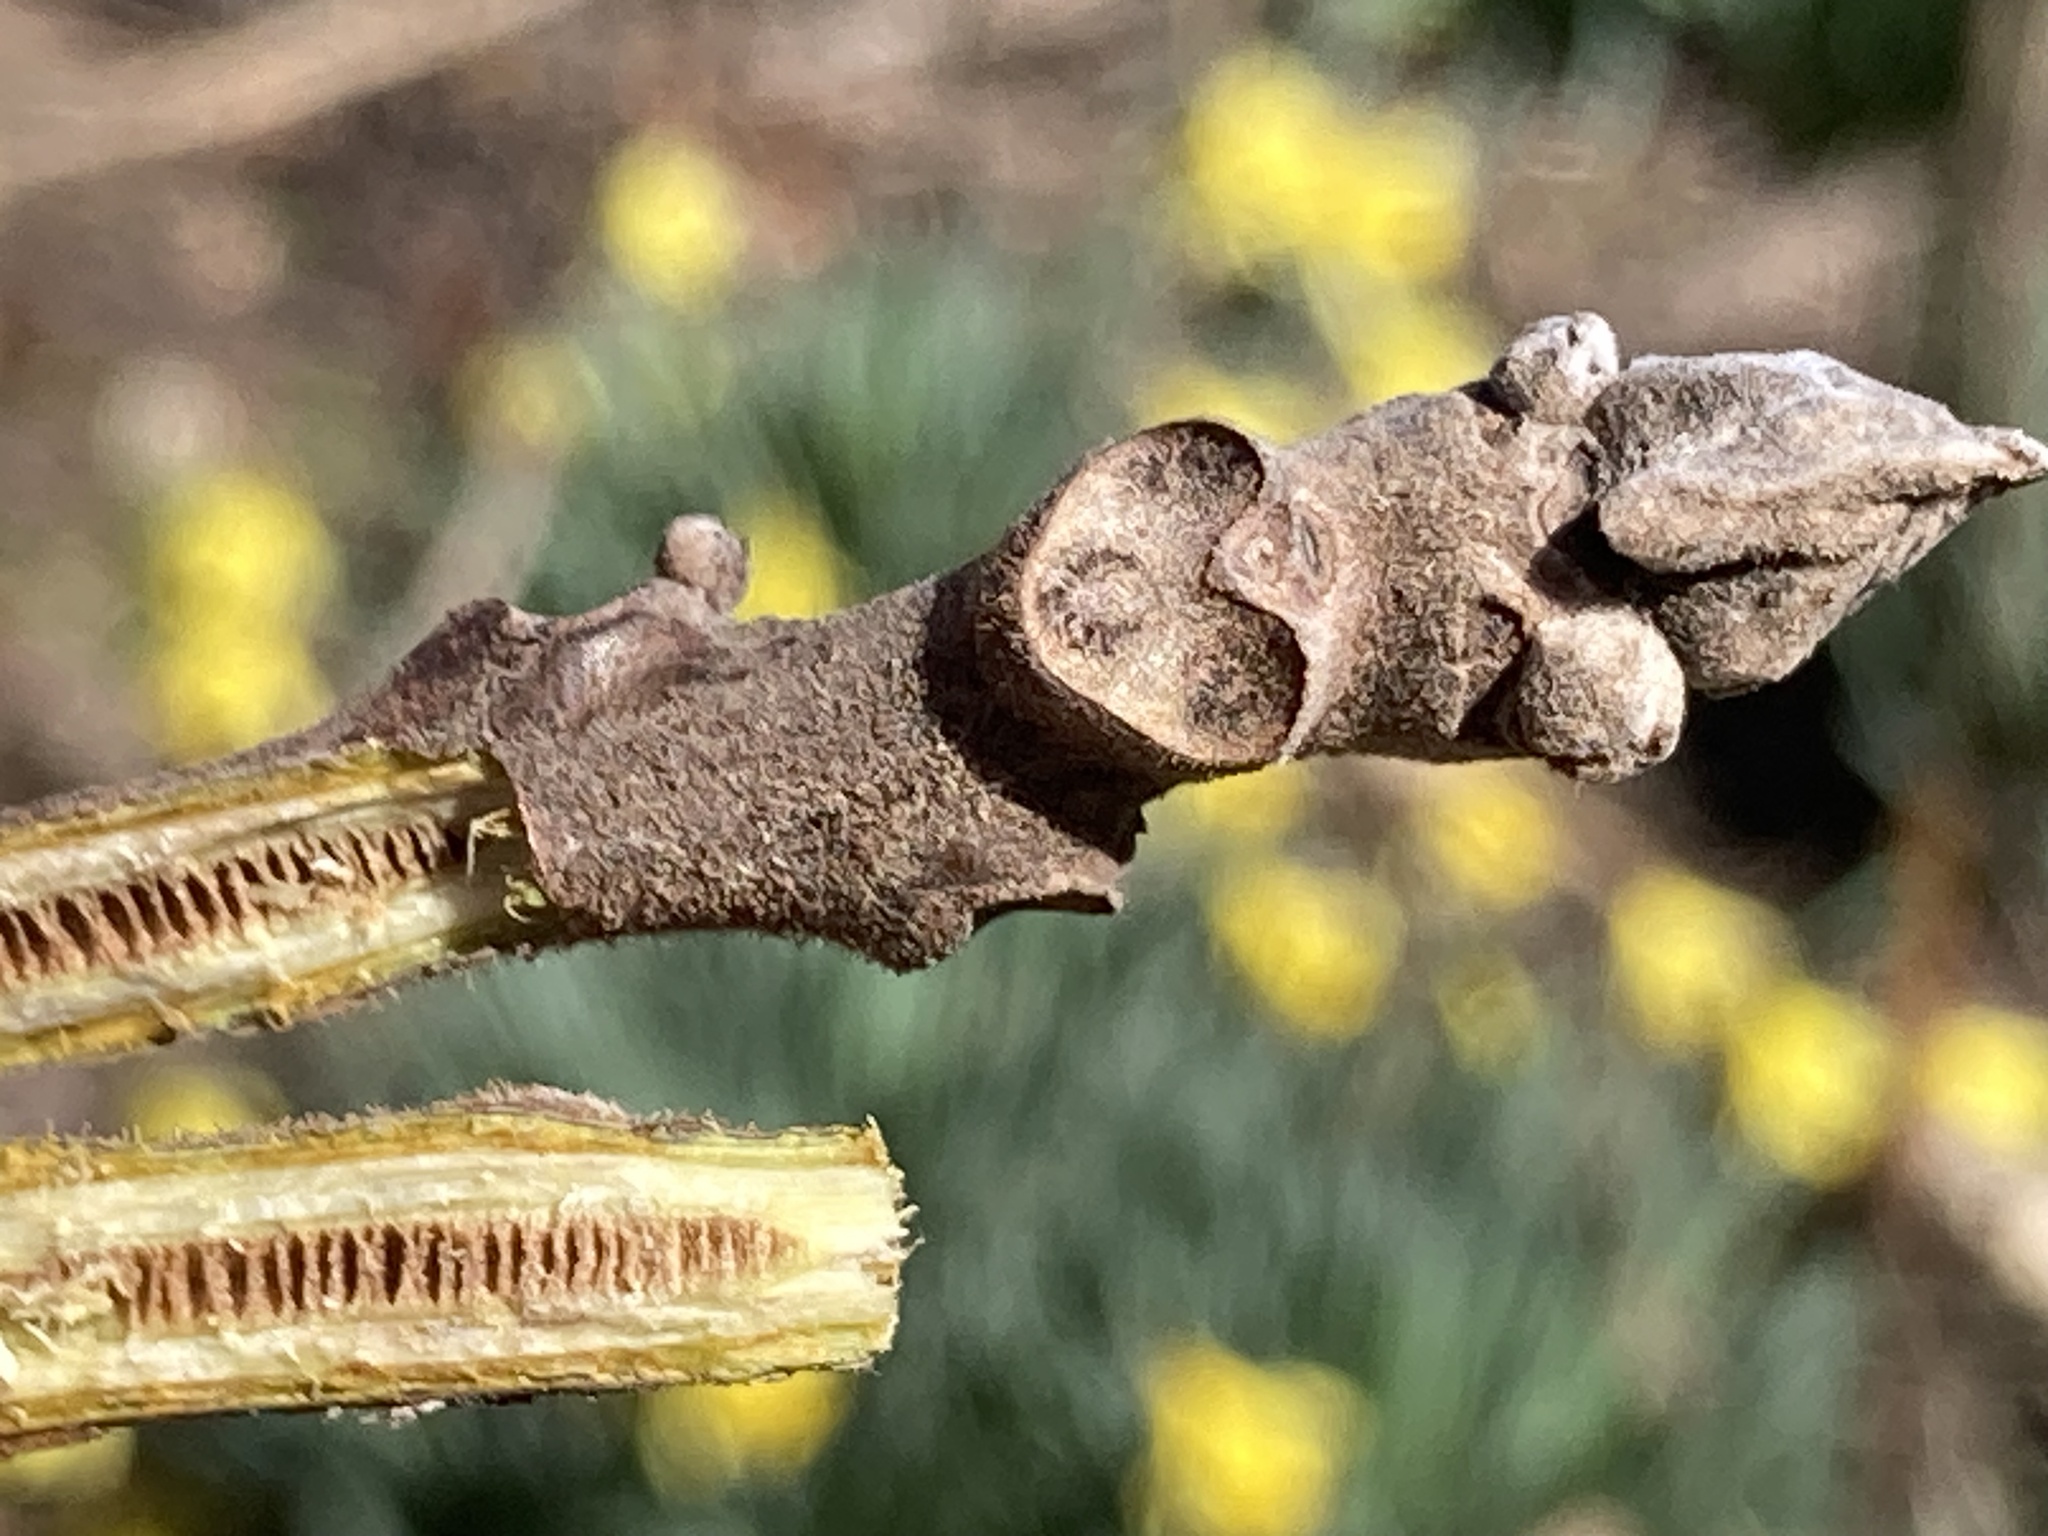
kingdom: Plantae
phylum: Tracheophyta
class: Magnoliopsida
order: Fagales
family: Juglandaceae
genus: Juglans
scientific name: Juglans nigra
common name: Black walnut
